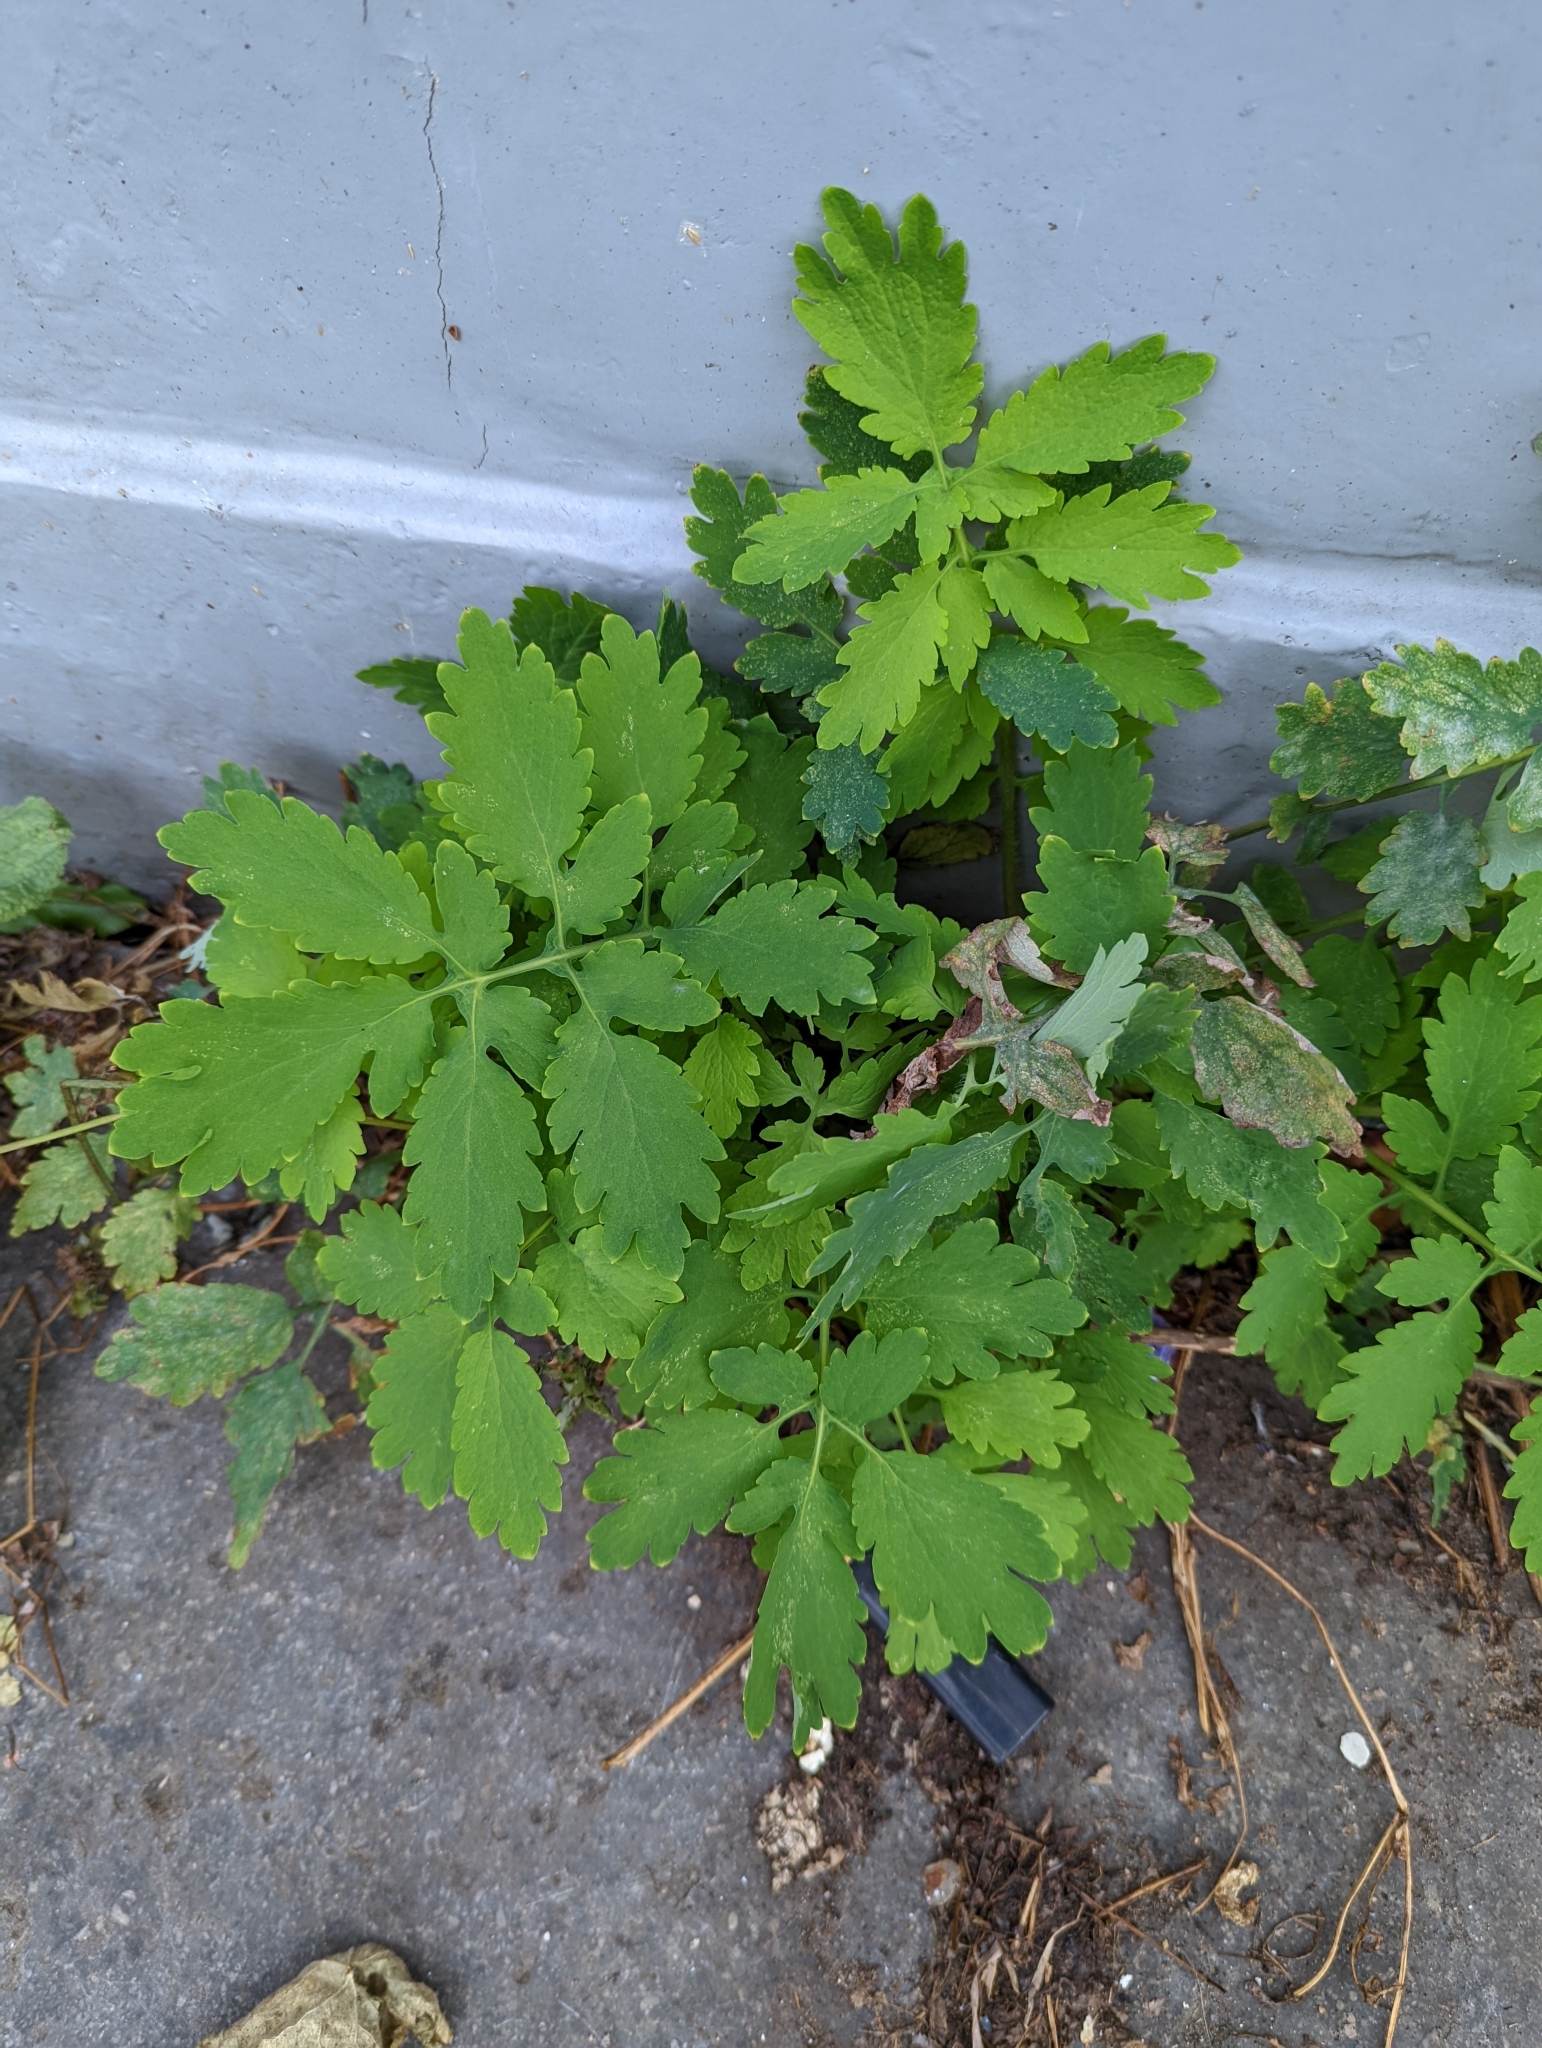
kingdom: Plantae
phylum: Tracheophyta
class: Magnoliopsida
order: Ranunculales
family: Papaveraceae
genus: Chelidonium
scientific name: Chelidonium majus
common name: Greater celandine
